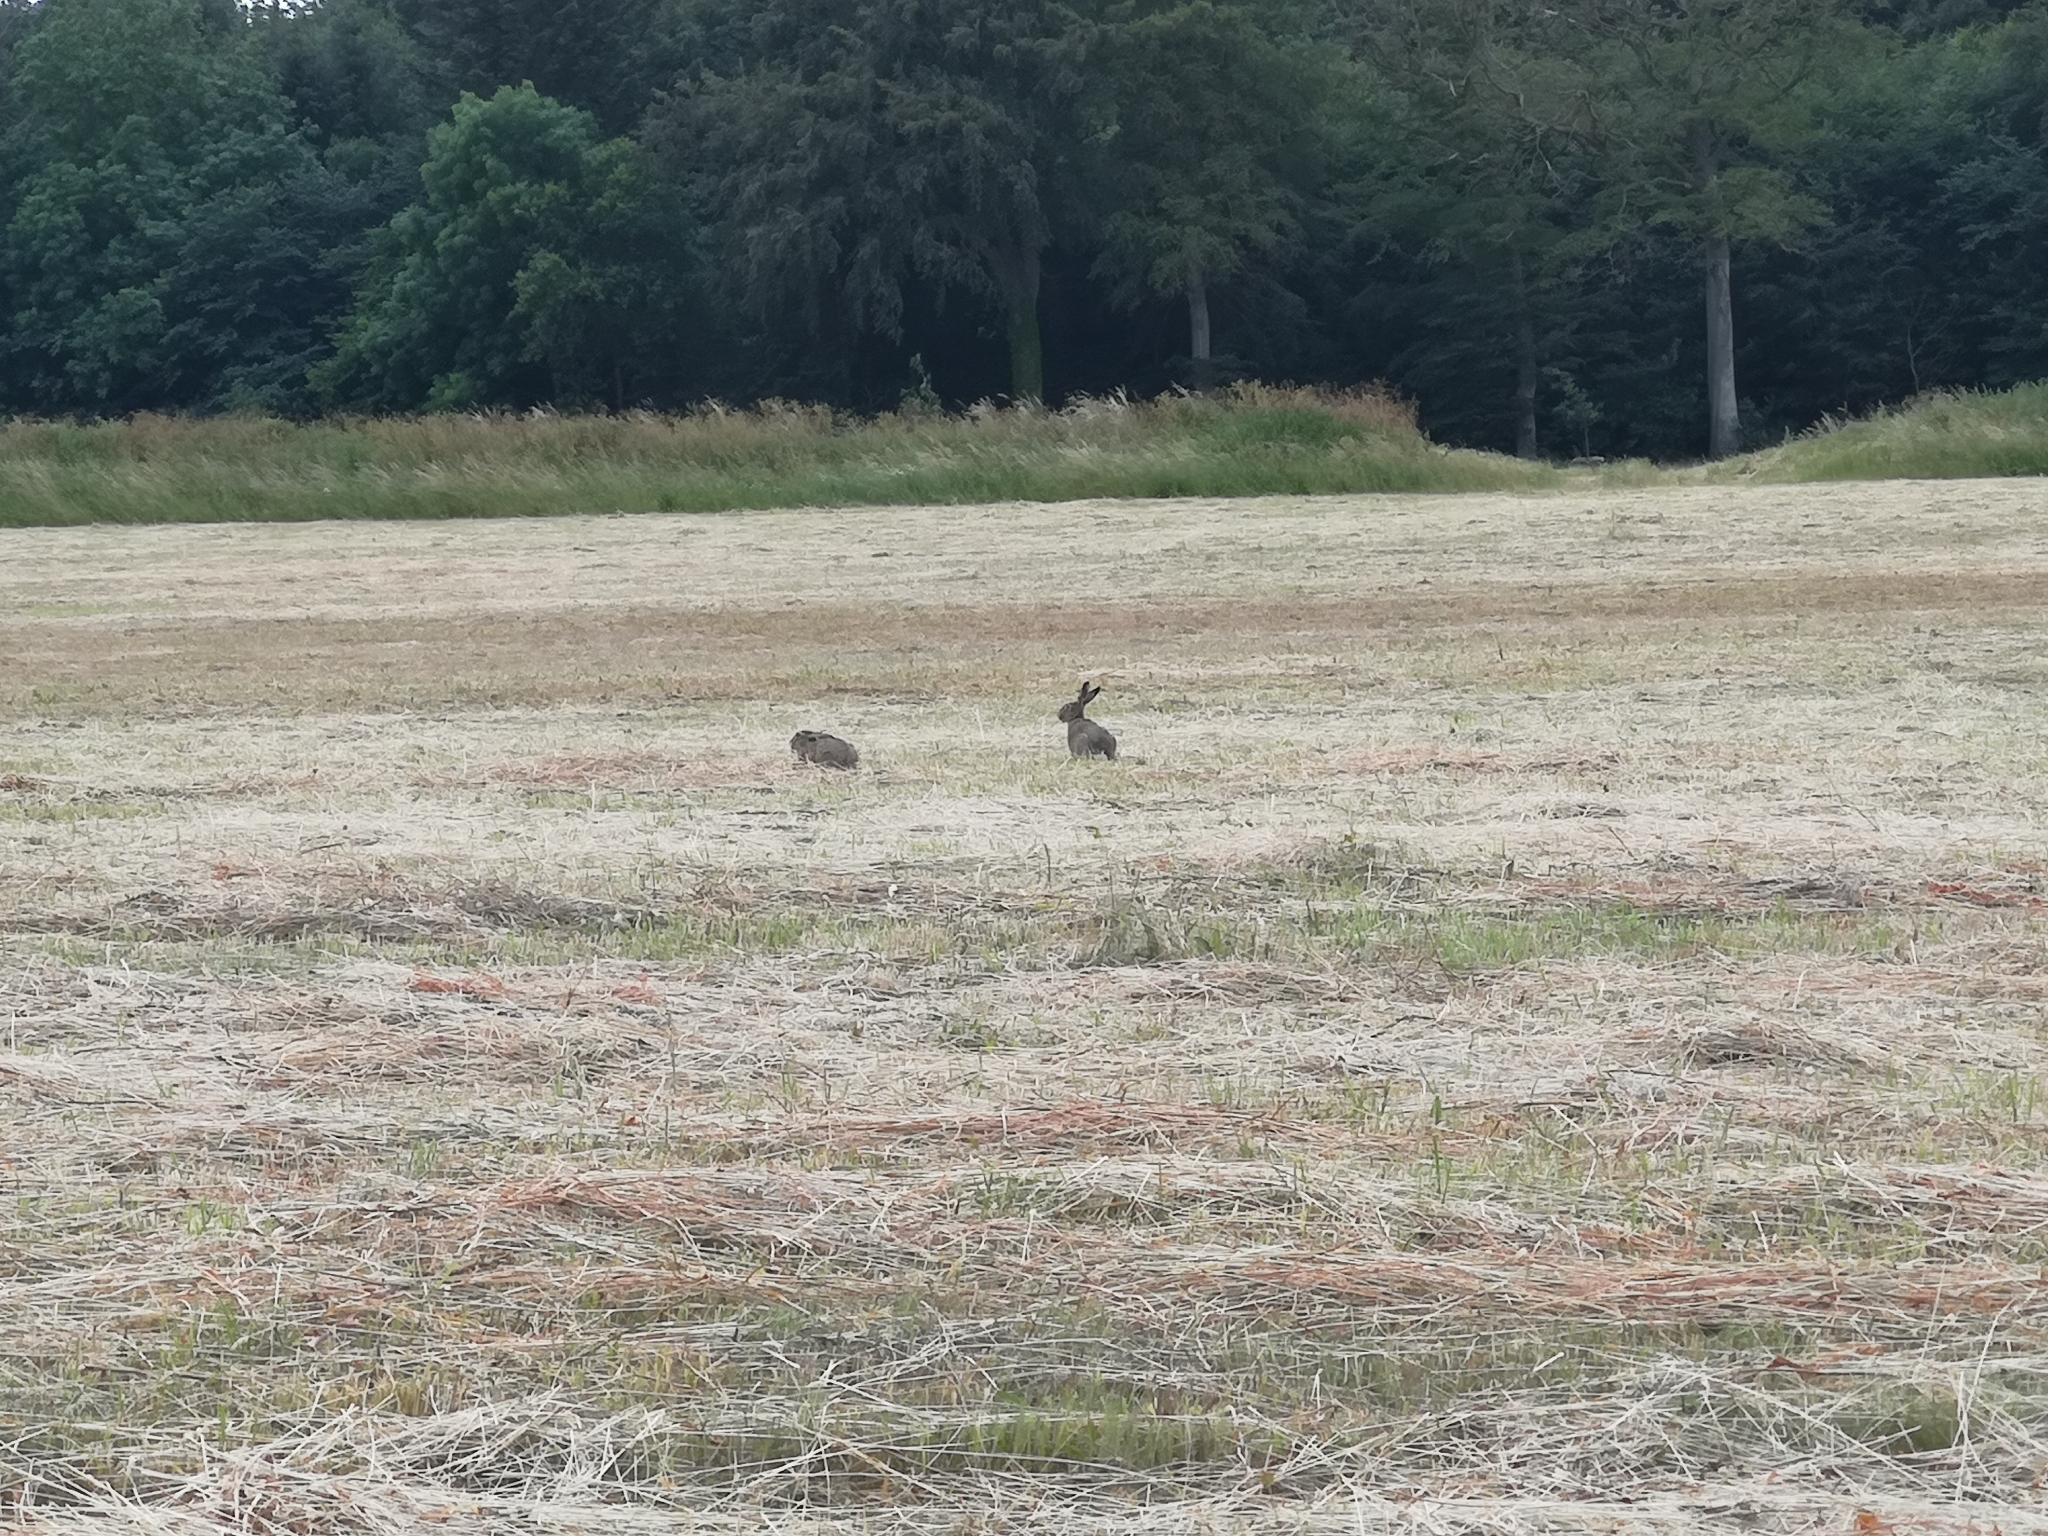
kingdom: Animalia
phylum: Chordata
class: Mammalia
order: Lagomorpha
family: Leporidae
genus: Lepus
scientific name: Lepus europaeus
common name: European hare
